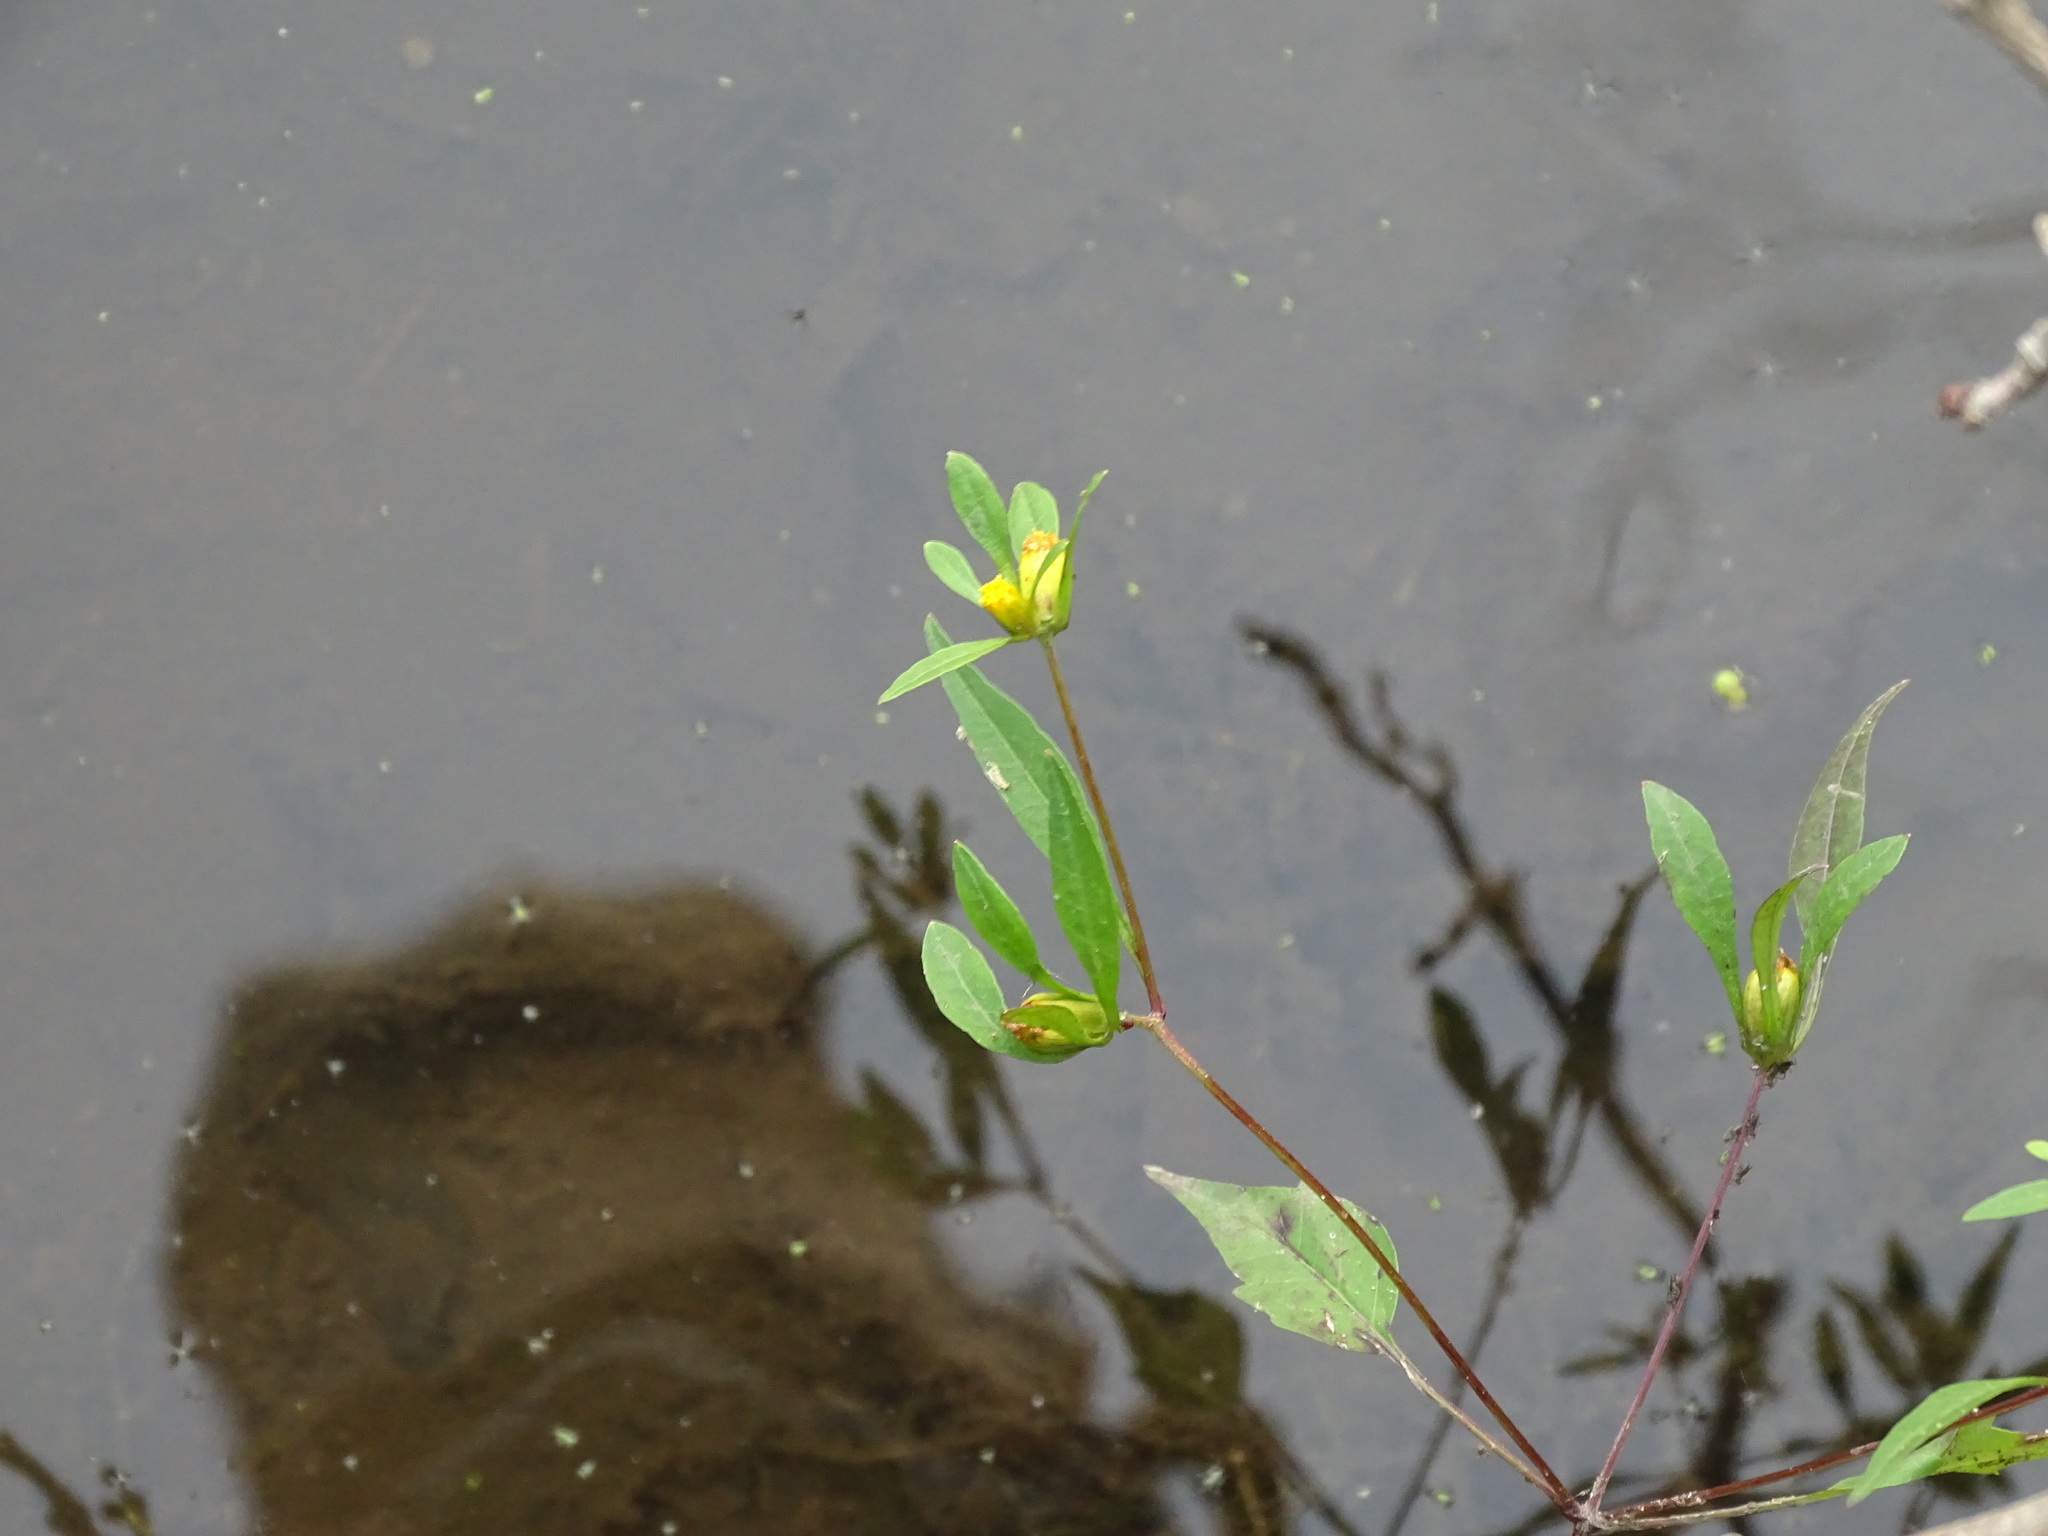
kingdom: Plantae
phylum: Tracheophyta
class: Magnoliopsida
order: Asterales
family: Asteraceae
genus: Bidens
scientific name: Bidens discoidea
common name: Discoide beggarticks
